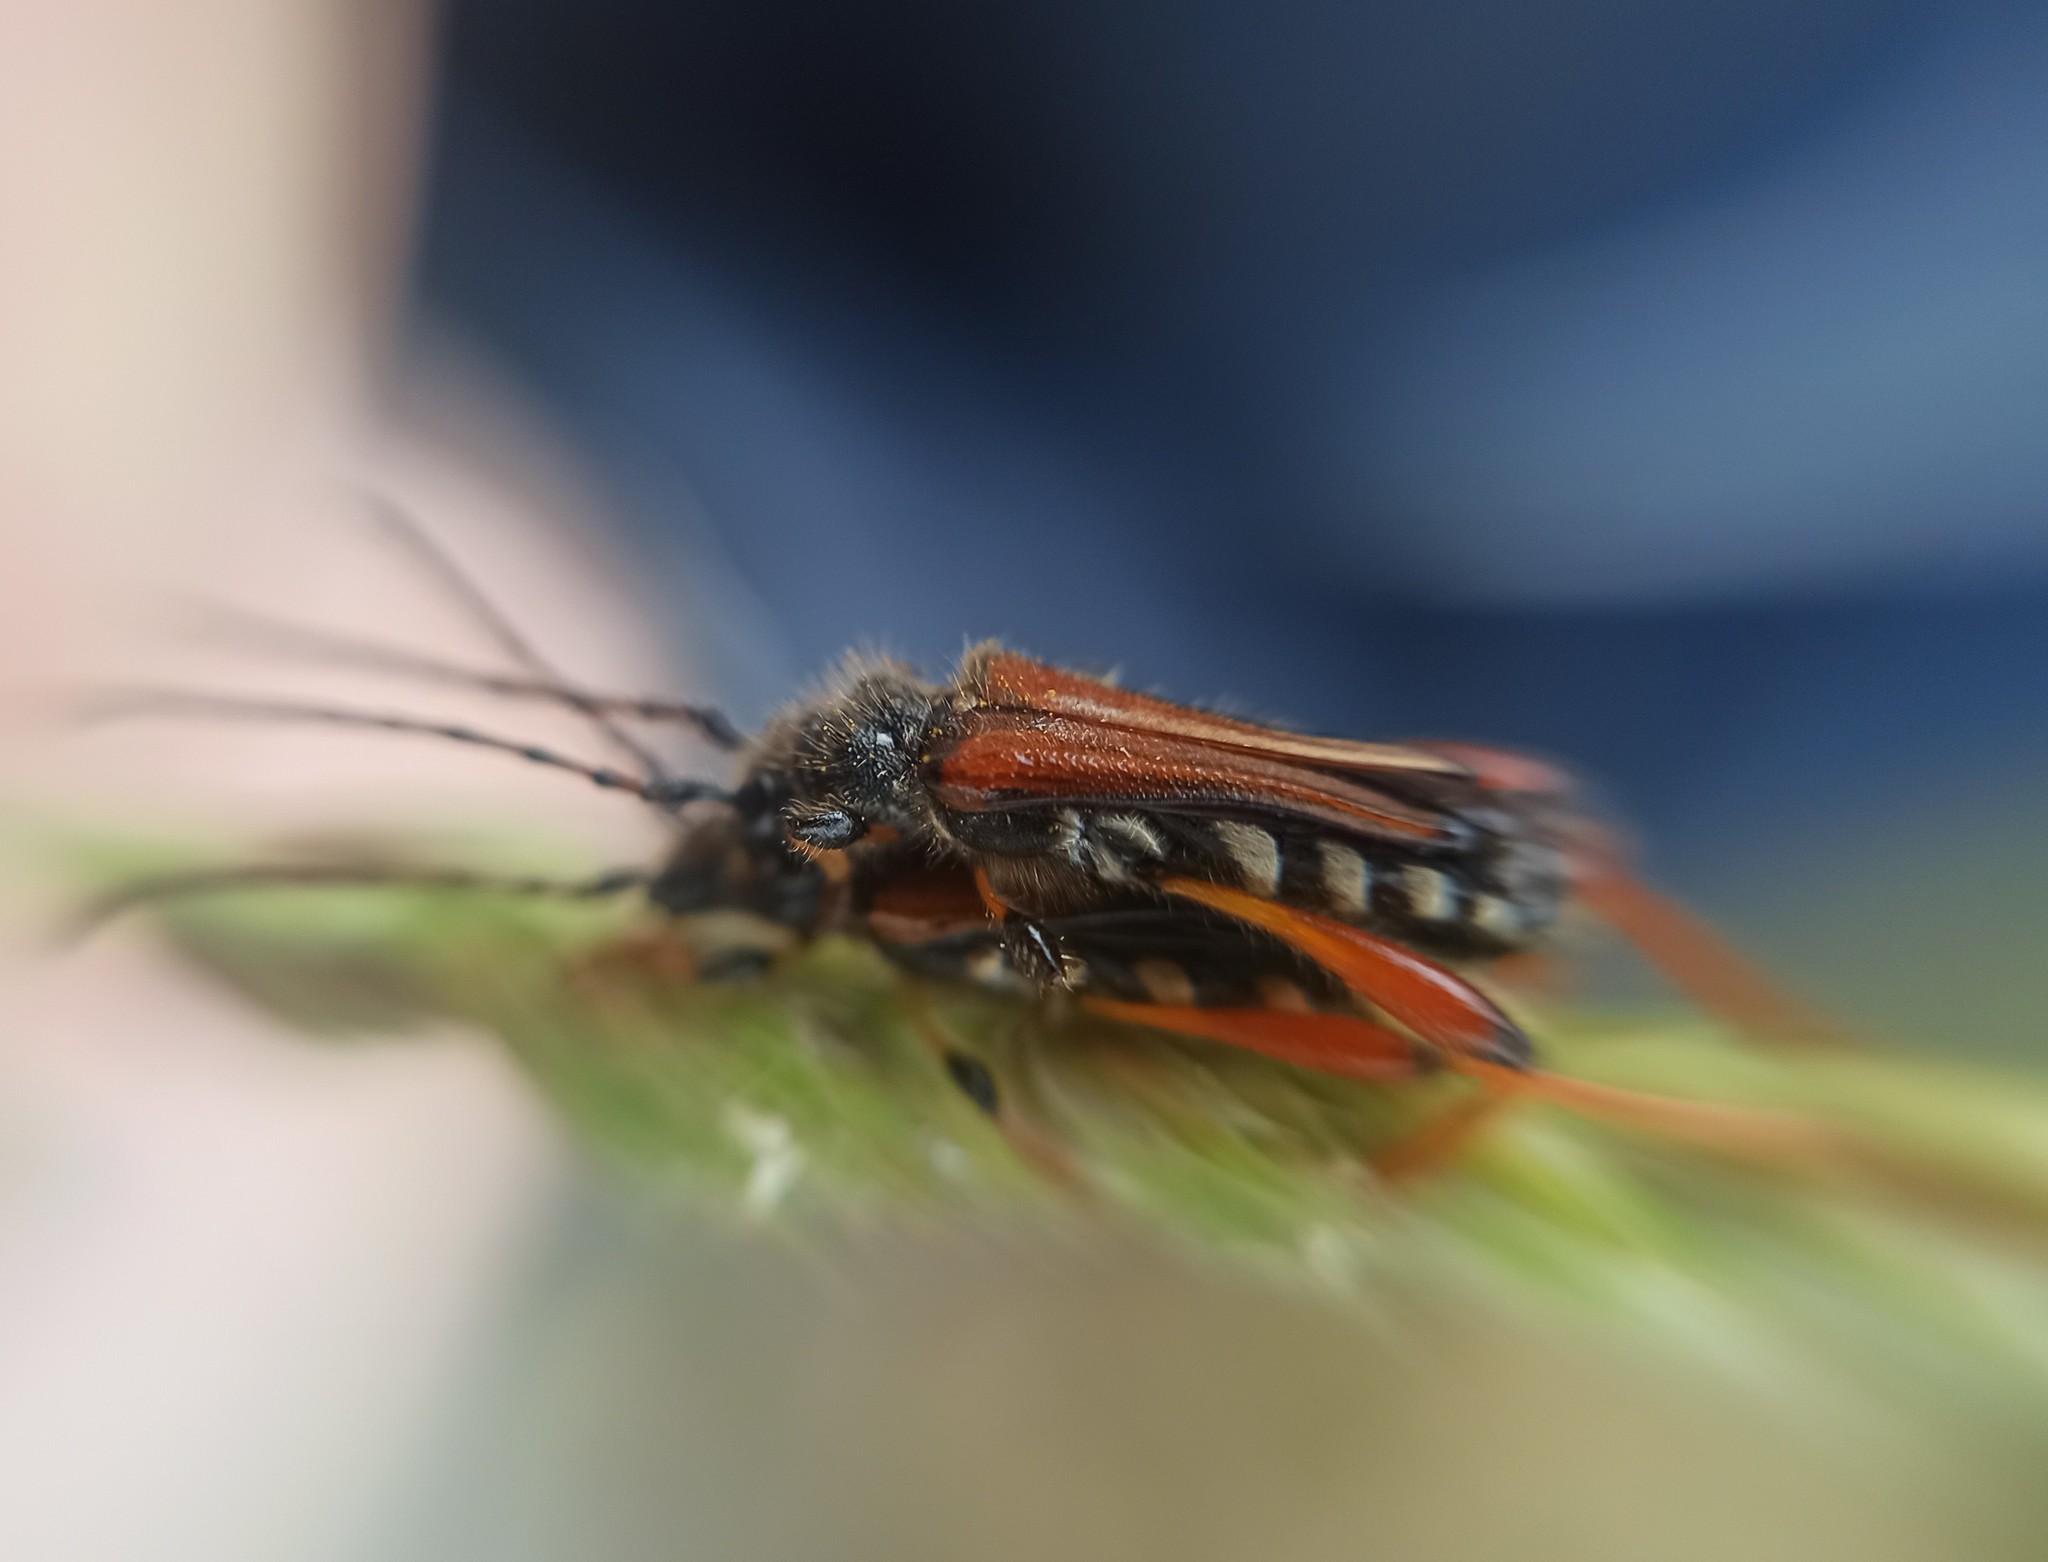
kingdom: Animalia
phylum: Arthropoda
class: Insecta
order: Coleoptera
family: Cerambycidae
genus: Stenopterus
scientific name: Stenopterus rufus
